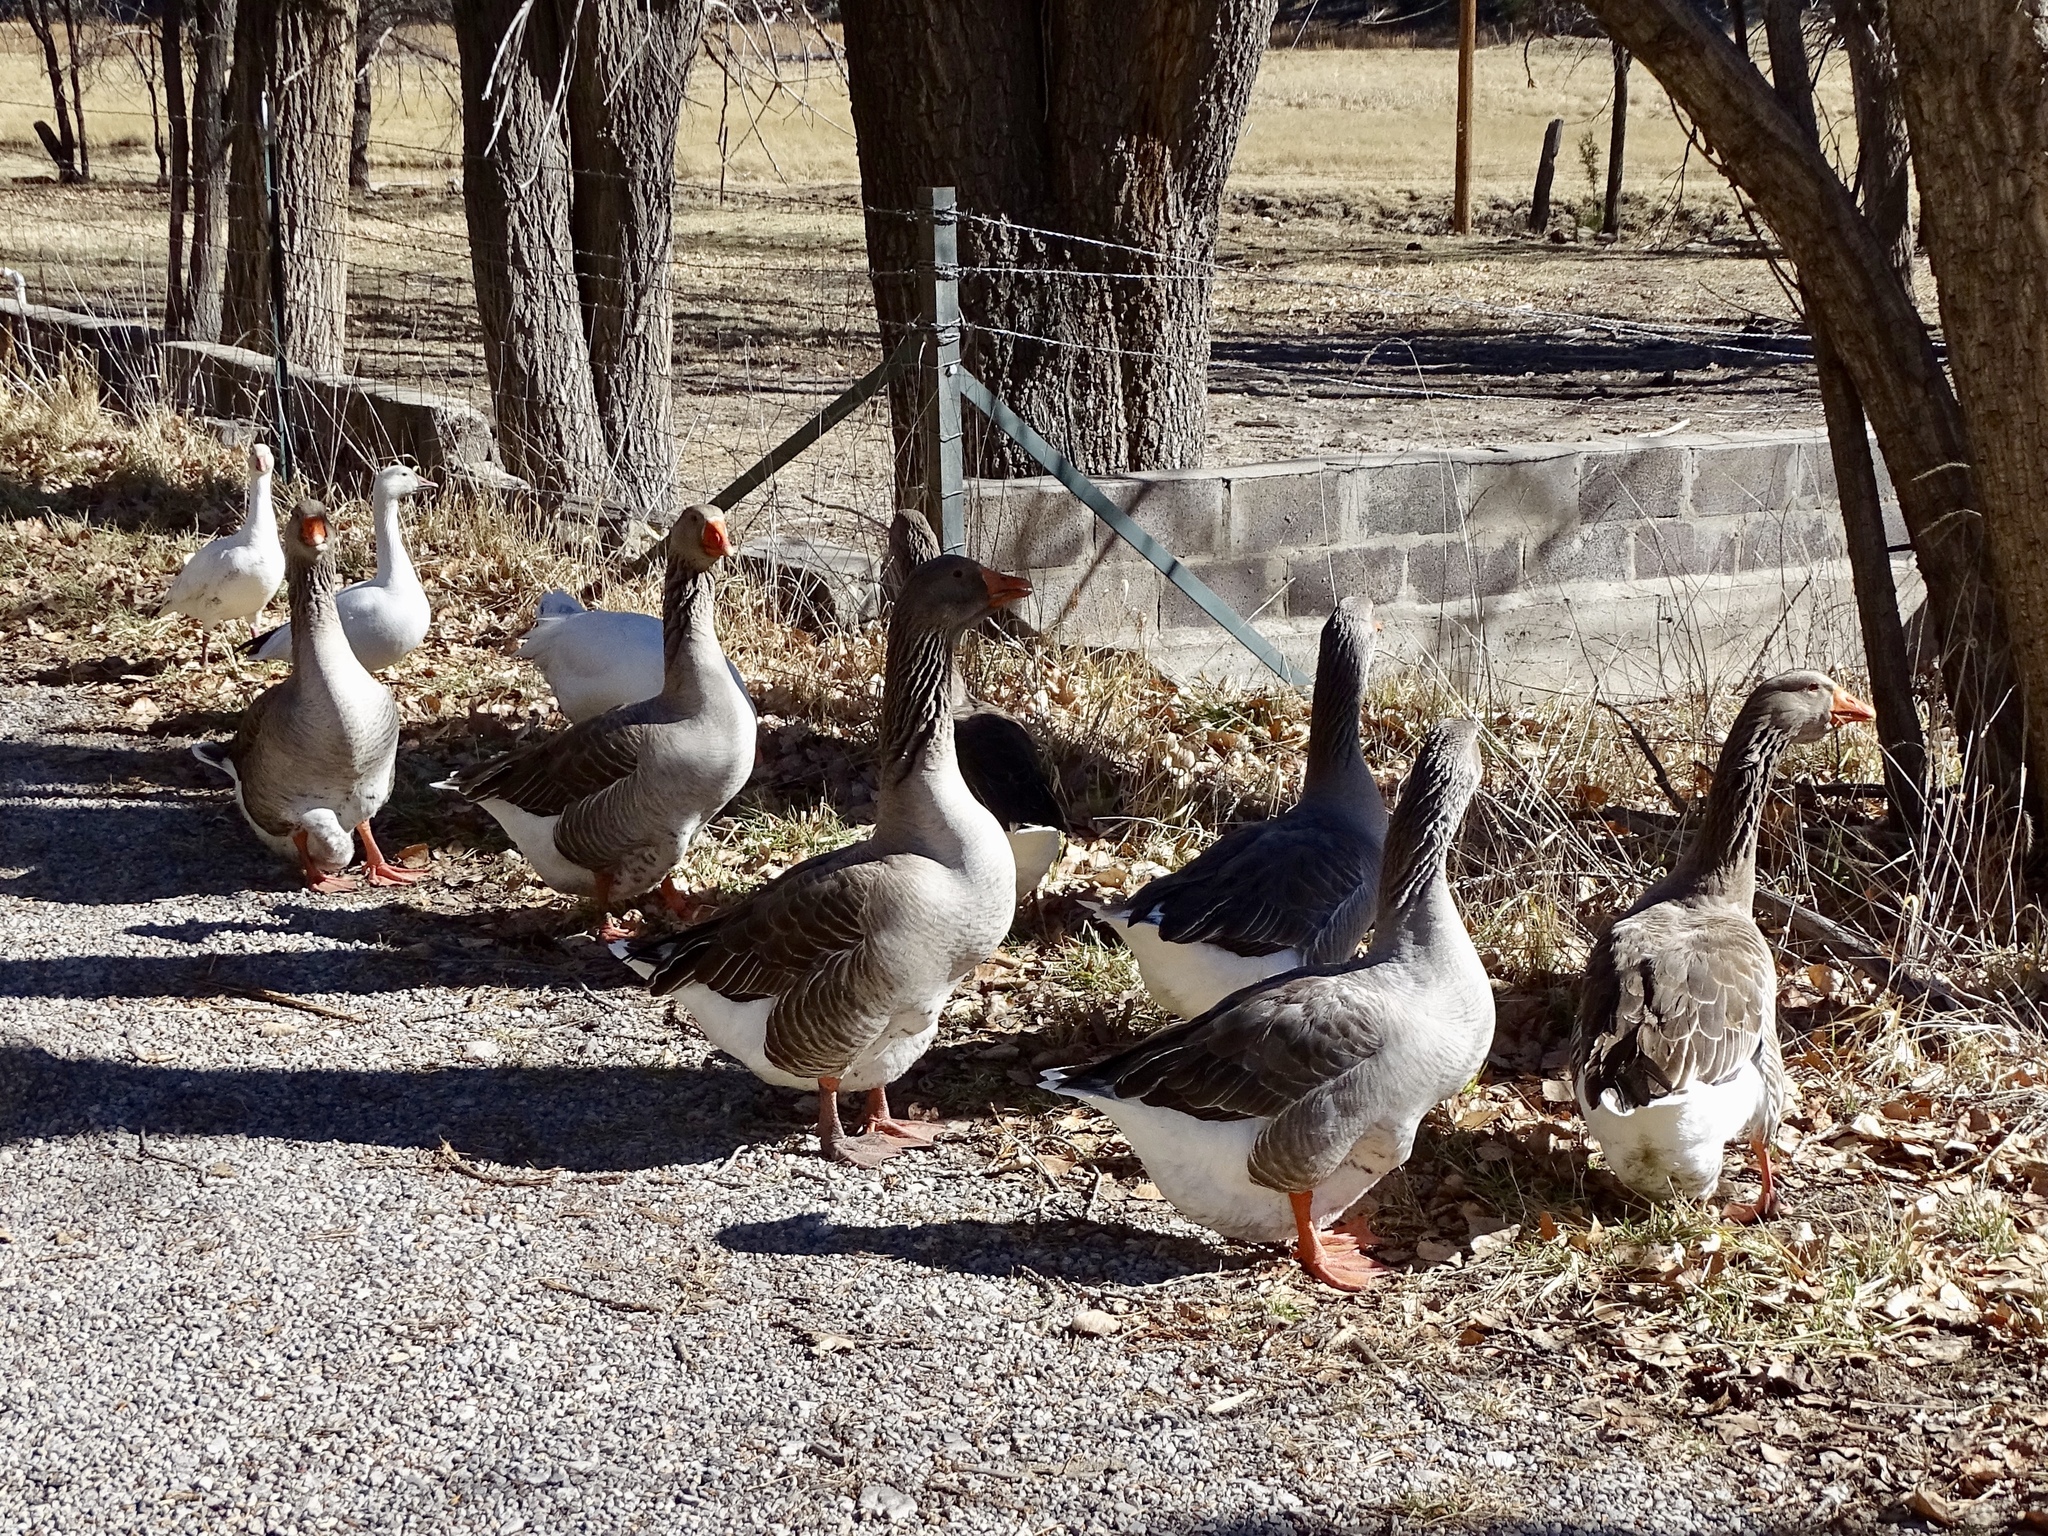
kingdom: Animalia
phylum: Chordata
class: Aves
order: Anseriformes
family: Anatidae
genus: Anser
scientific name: Anser anser
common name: Greylag goose
